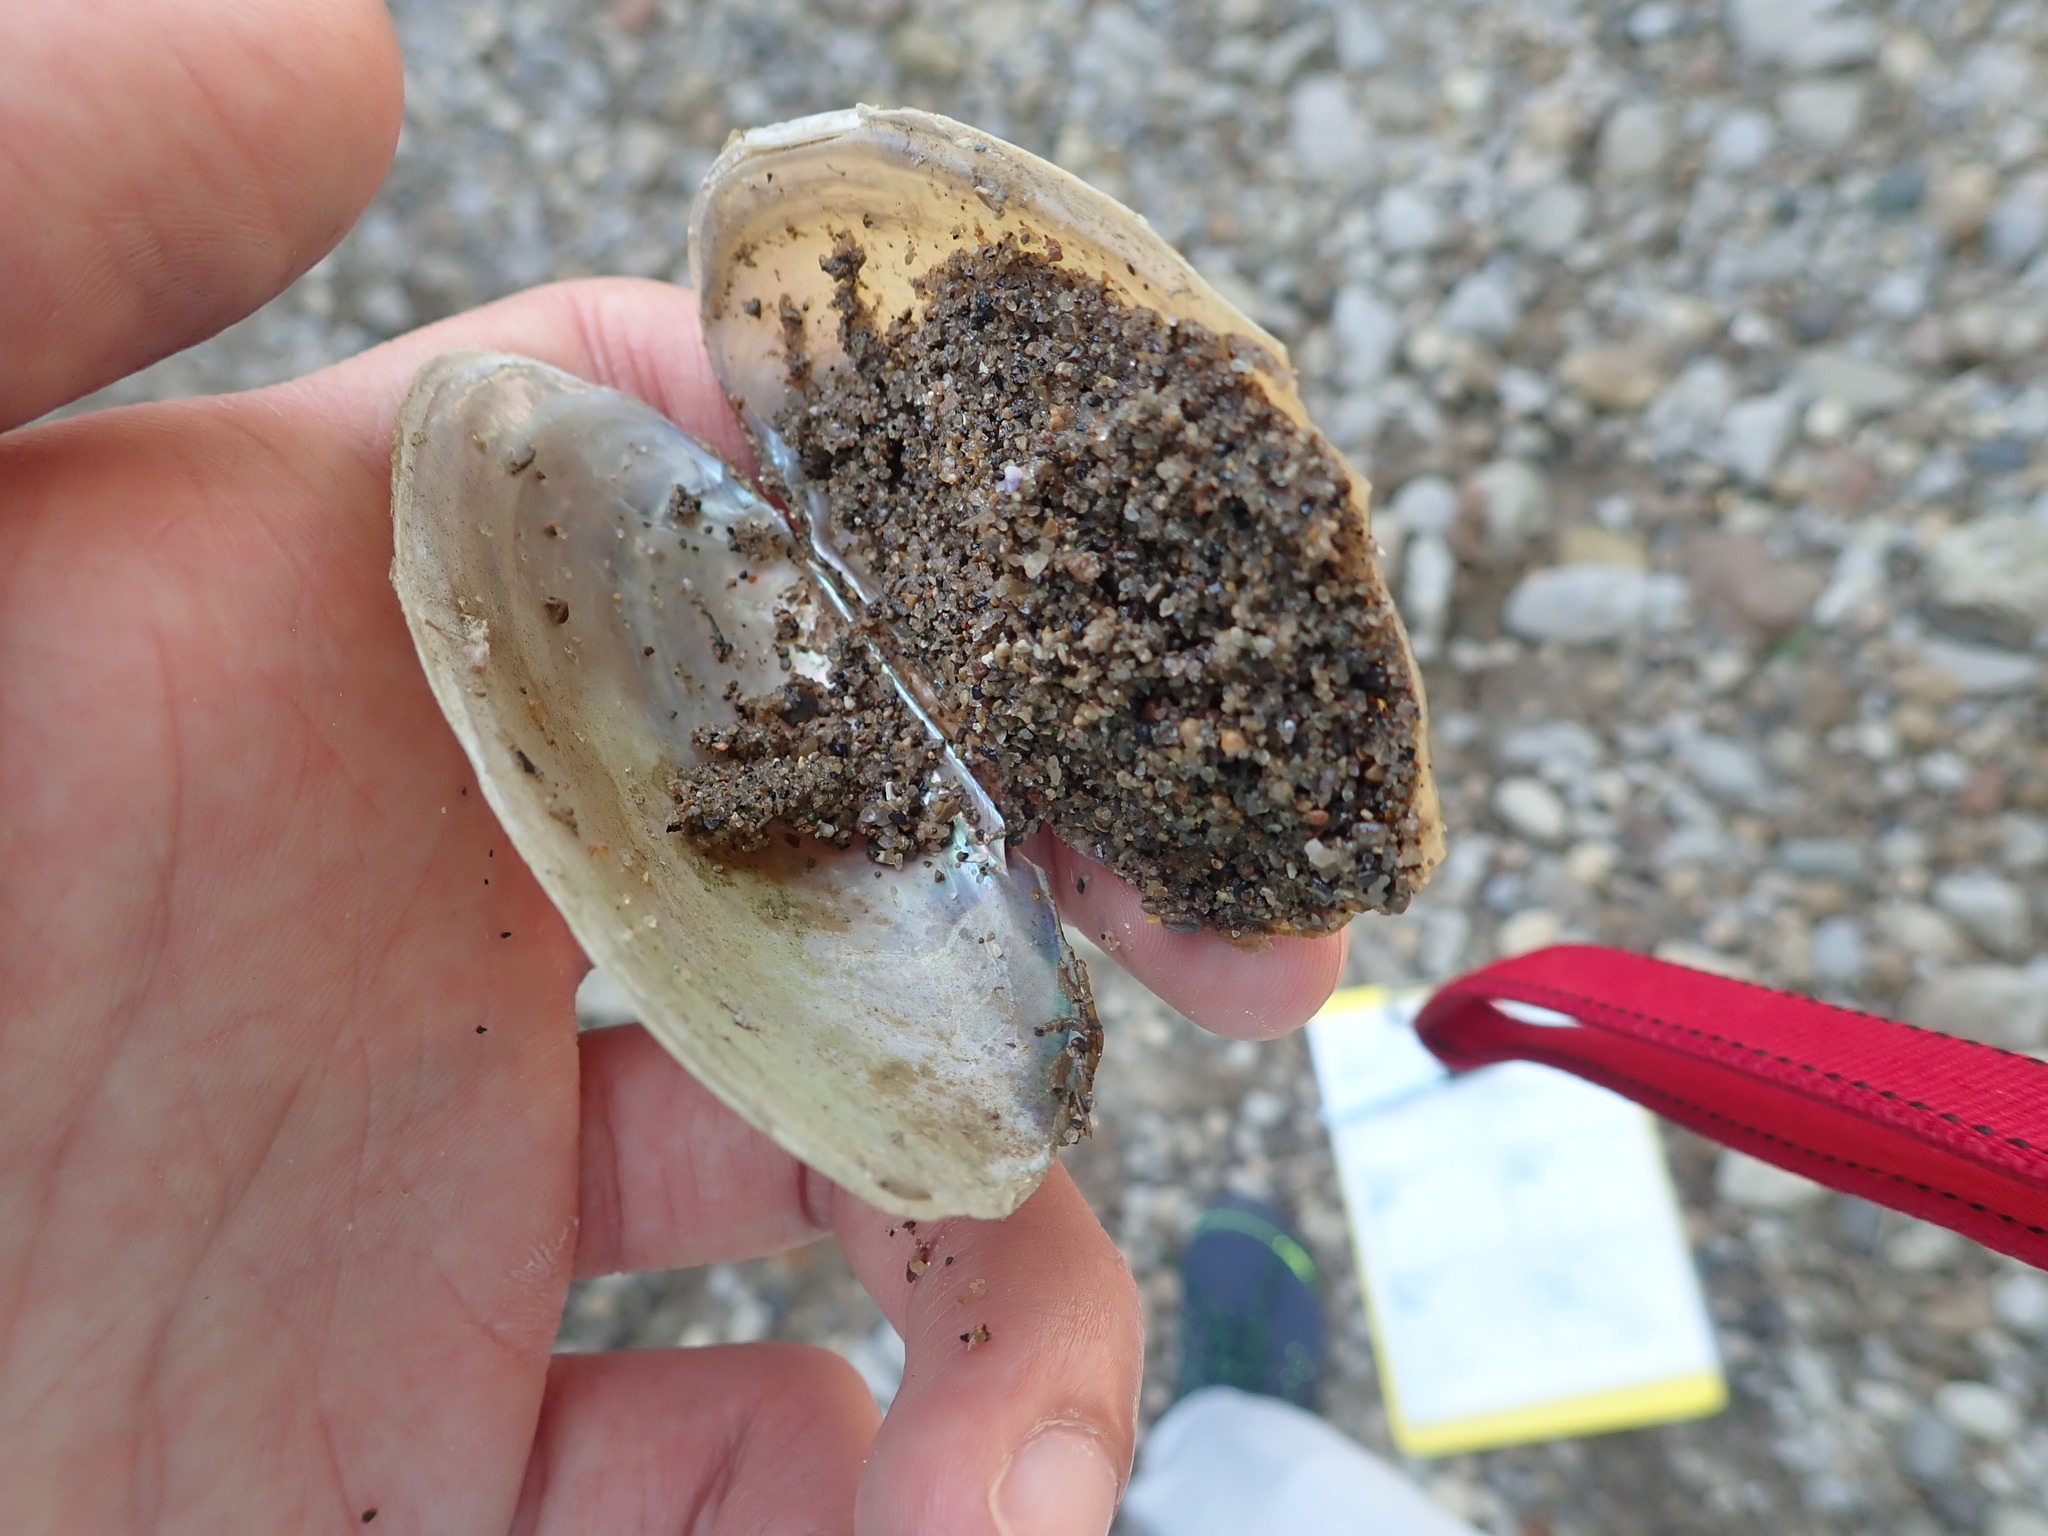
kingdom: Animalia
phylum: Mollusca
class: Bivalvia
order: Unionida
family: Unionidae
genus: Potamilus
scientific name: Potamilus fragilis
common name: Fragile papershell
